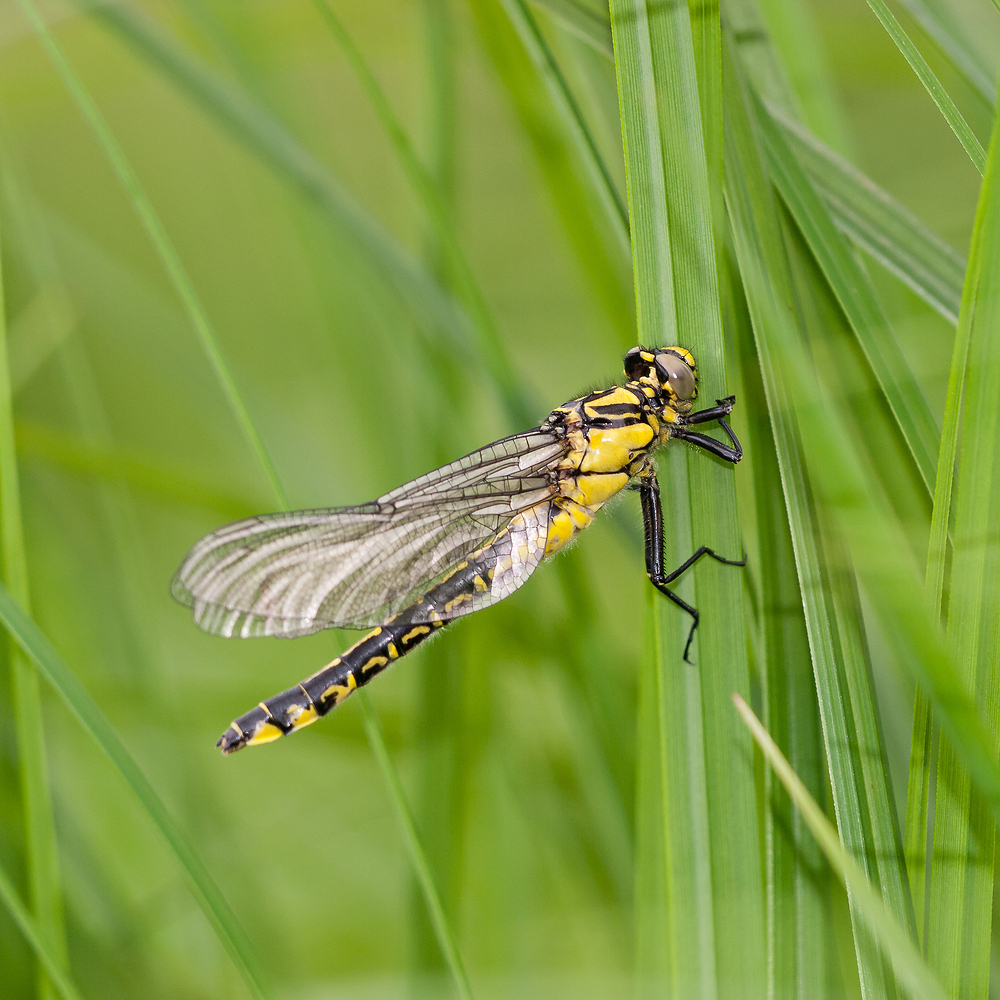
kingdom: Animalia
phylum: Arthropoda
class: Insecta
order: Odonata
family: Gomphidae
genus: Gomphus
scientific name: Gomphus vulgatissimus
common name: Club-tailed dragonfly
